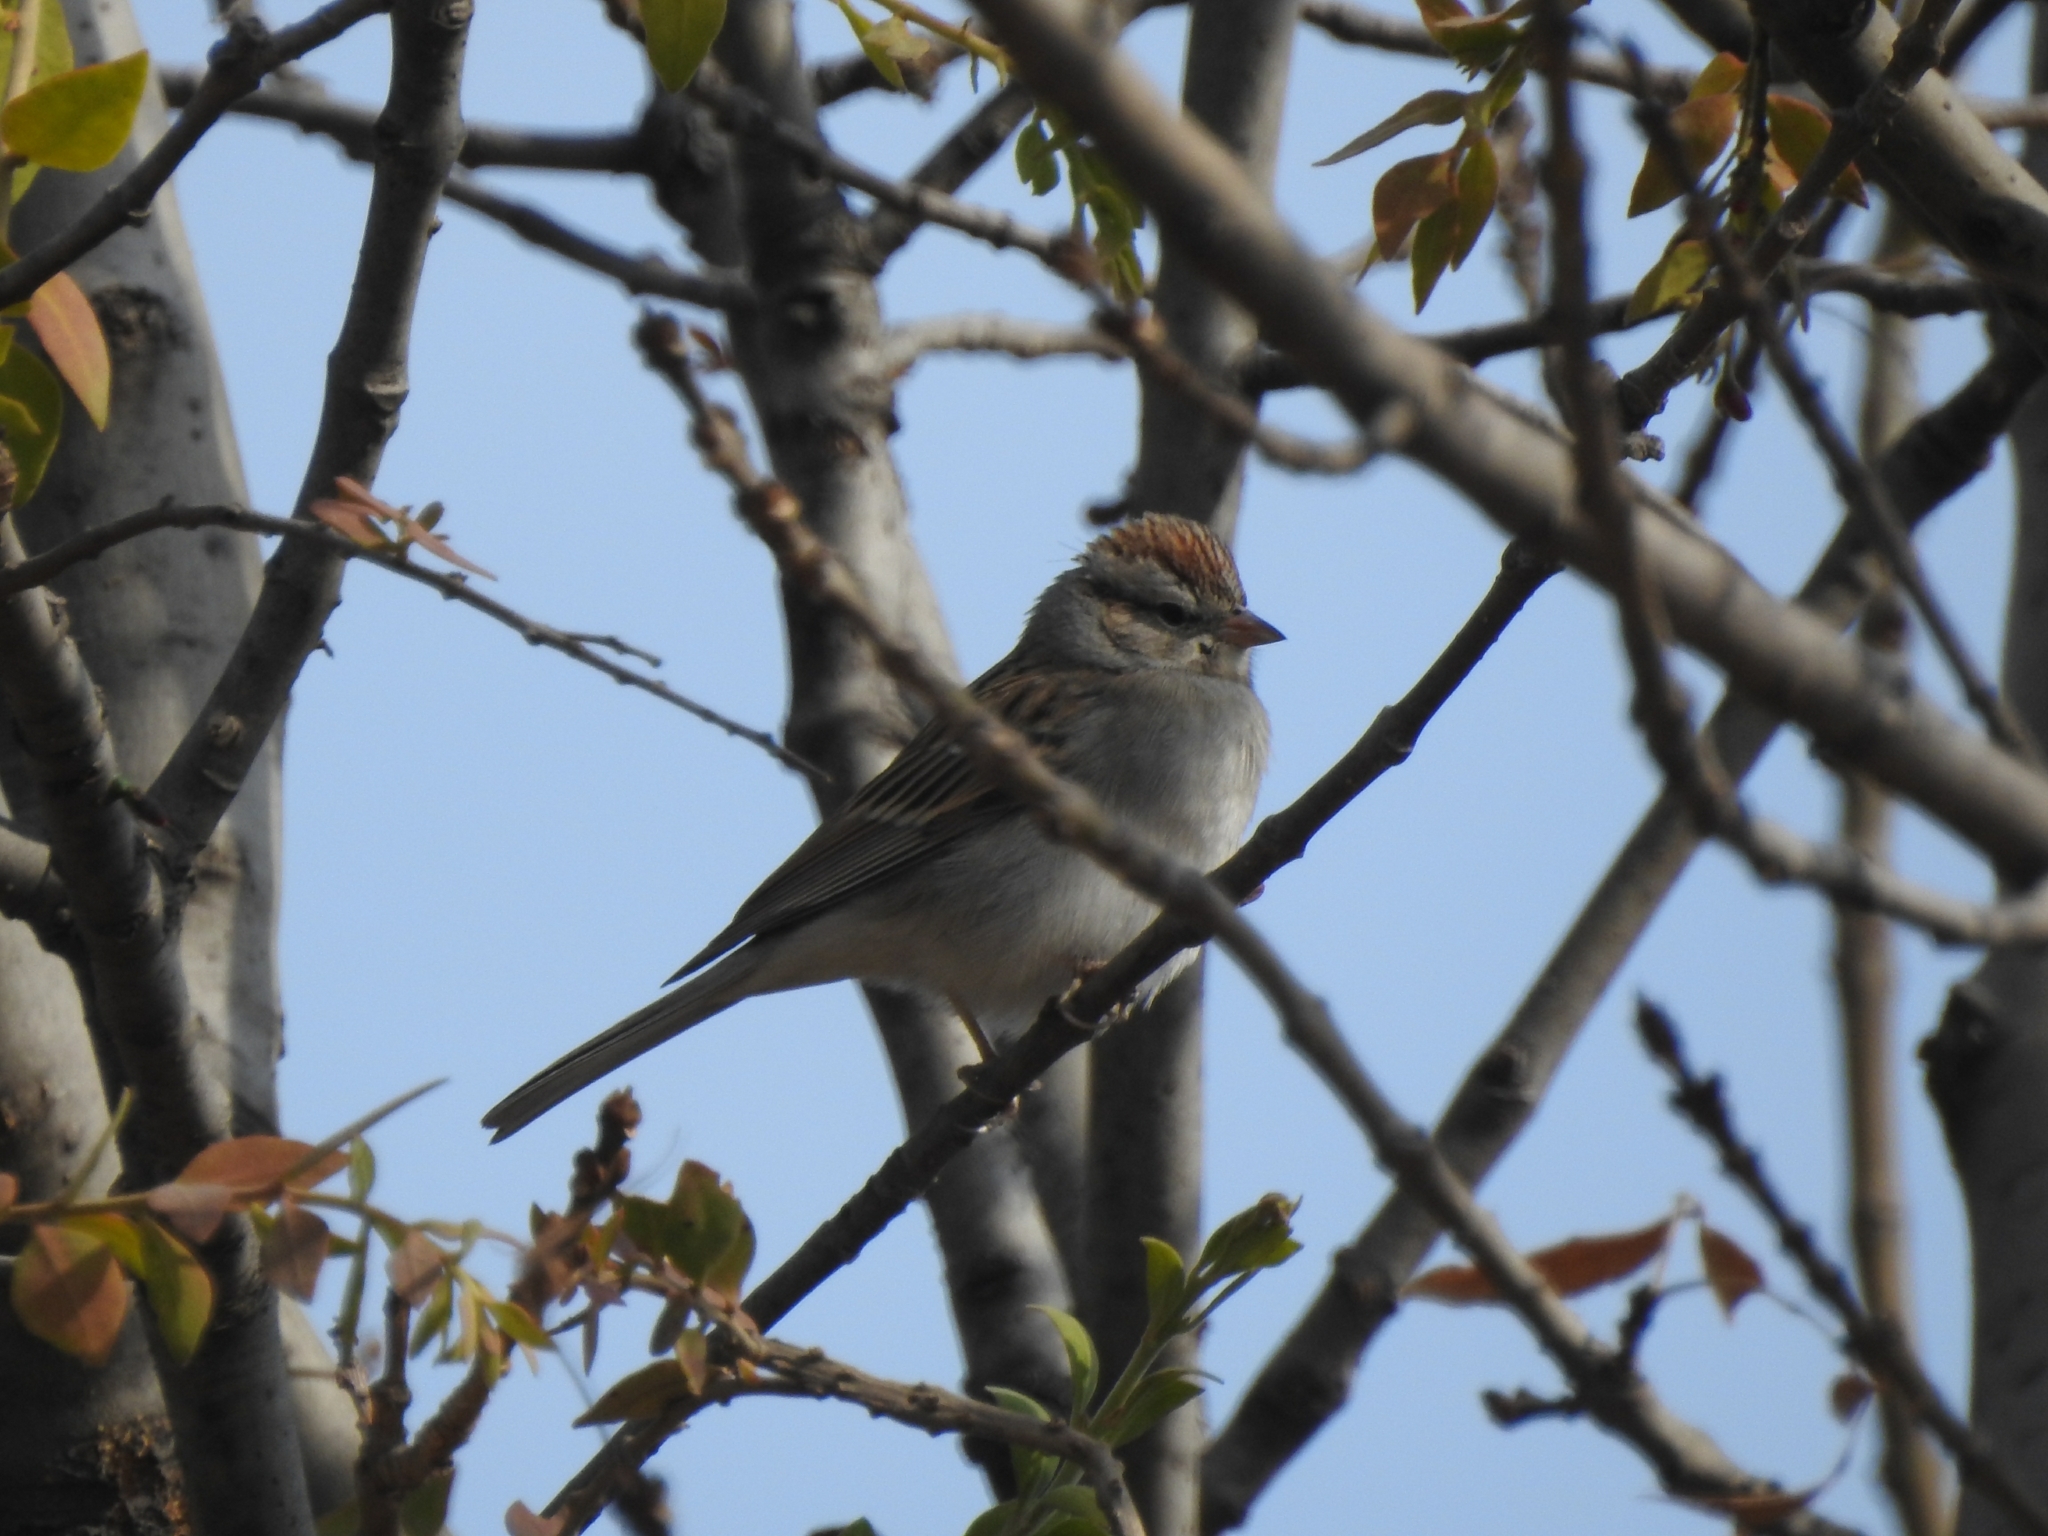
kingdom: Animalia
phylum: Chordata
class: Aves
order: Passeriformes
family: Passerellidae
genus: Spizella
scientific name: Spizella passerina
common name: Chipping sparrow
